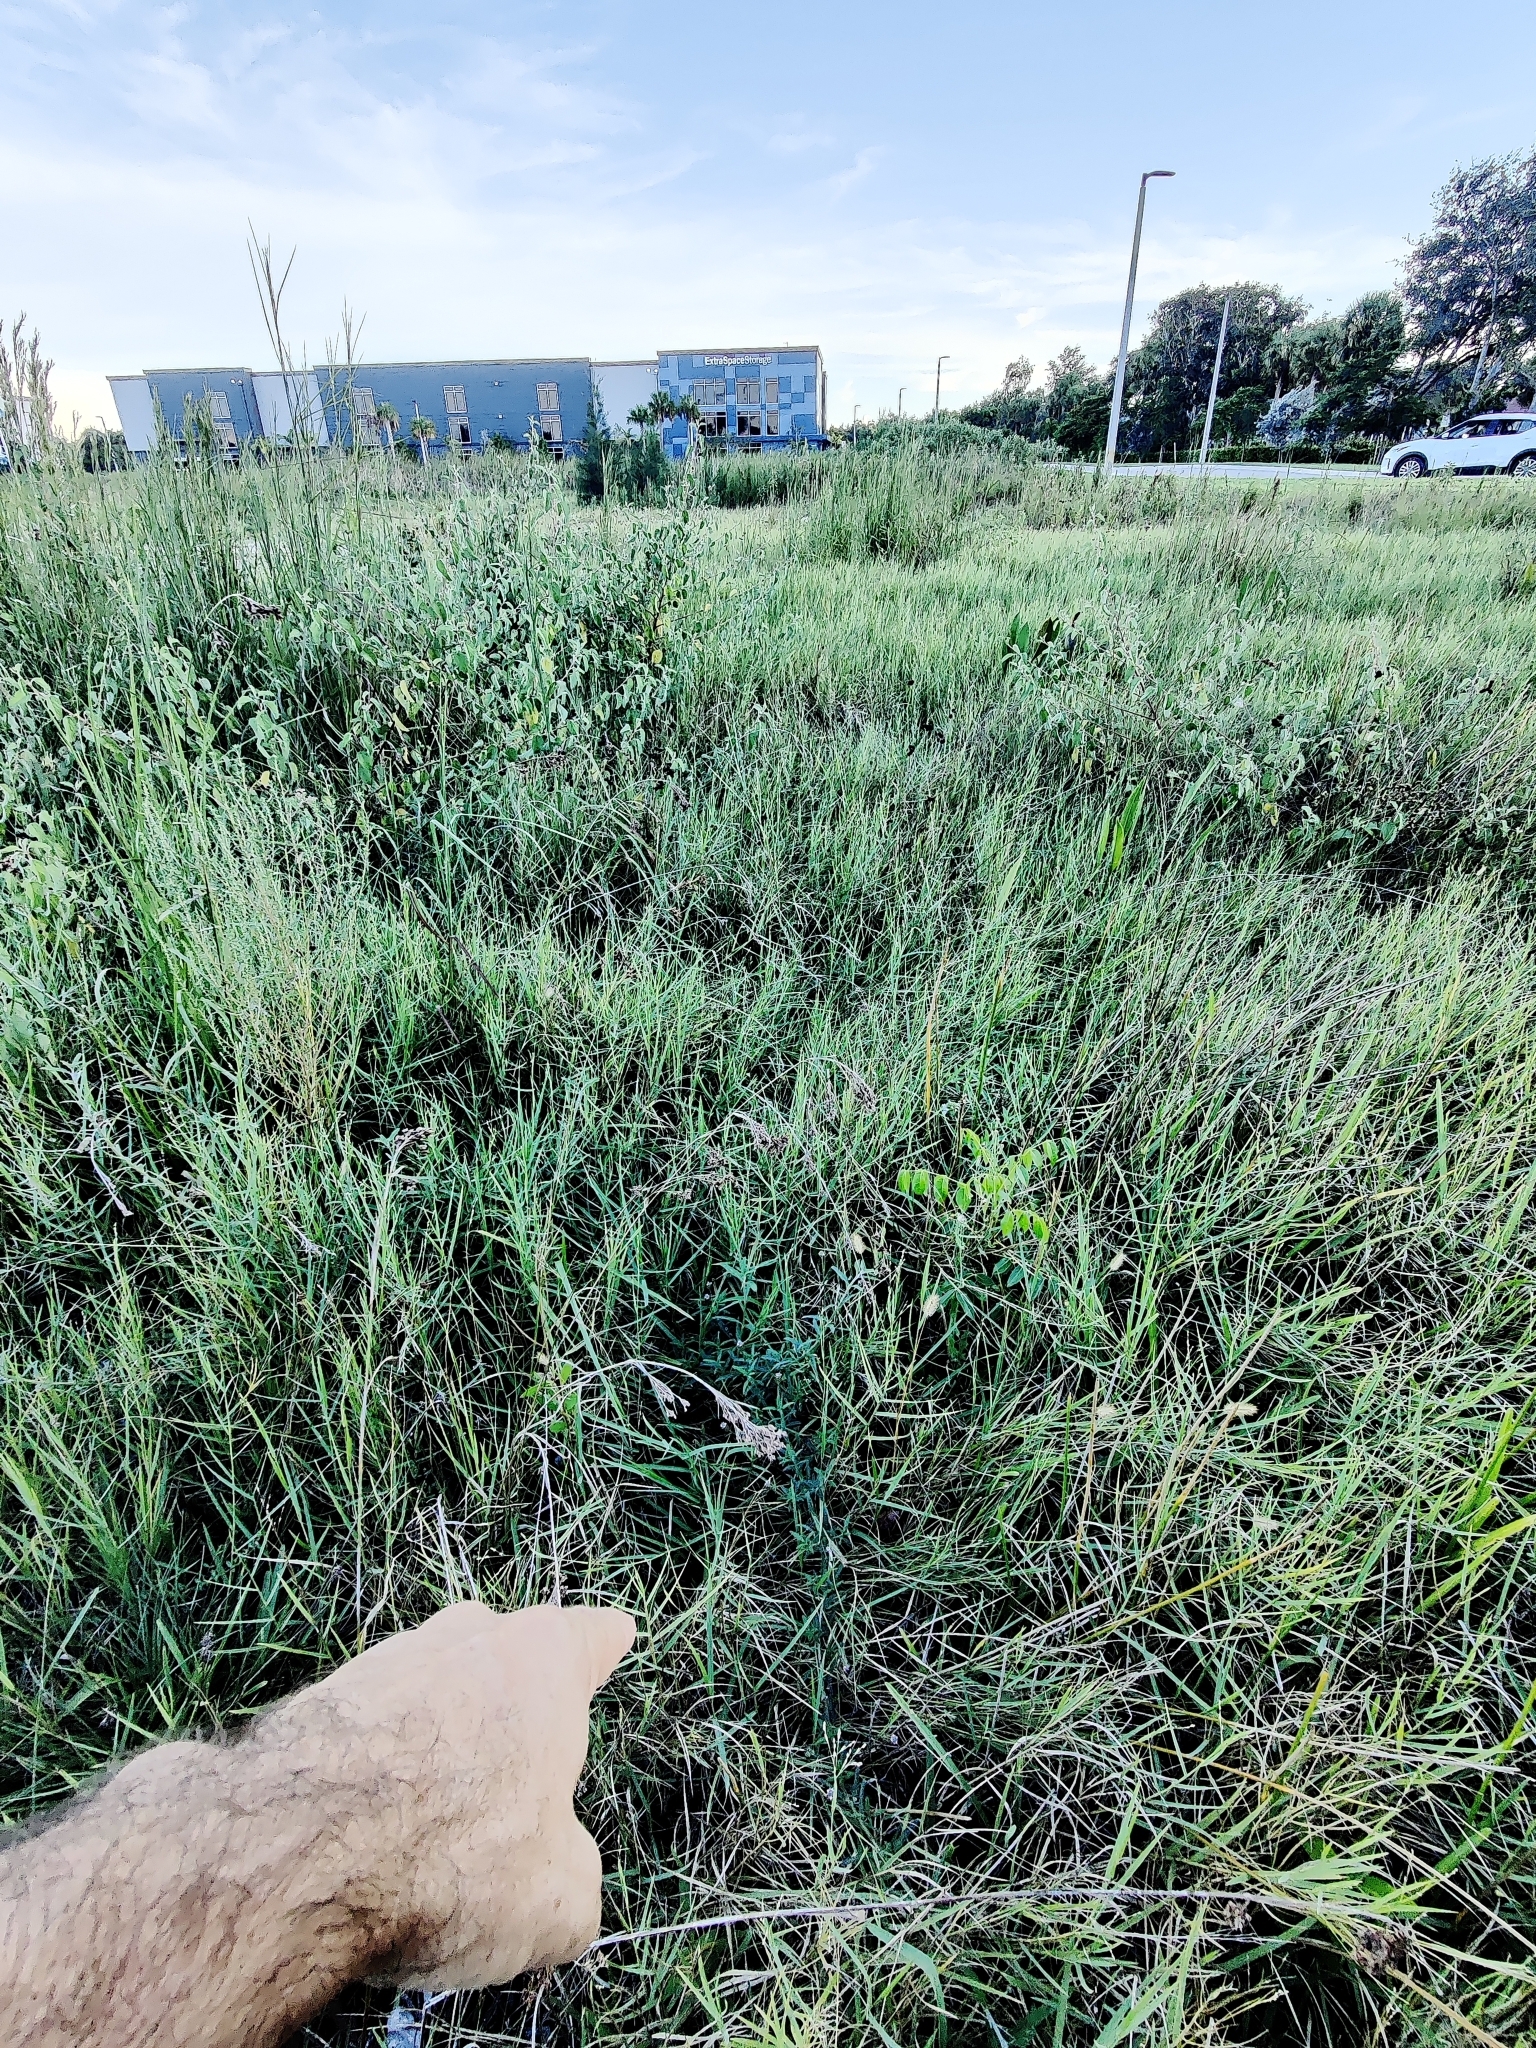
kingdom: Plantae
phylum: Tracheophyta
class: Magnoliopsida
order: Lamiales
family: Verbenaceae
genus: Lippia
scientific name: Lippia stoechadifolia
